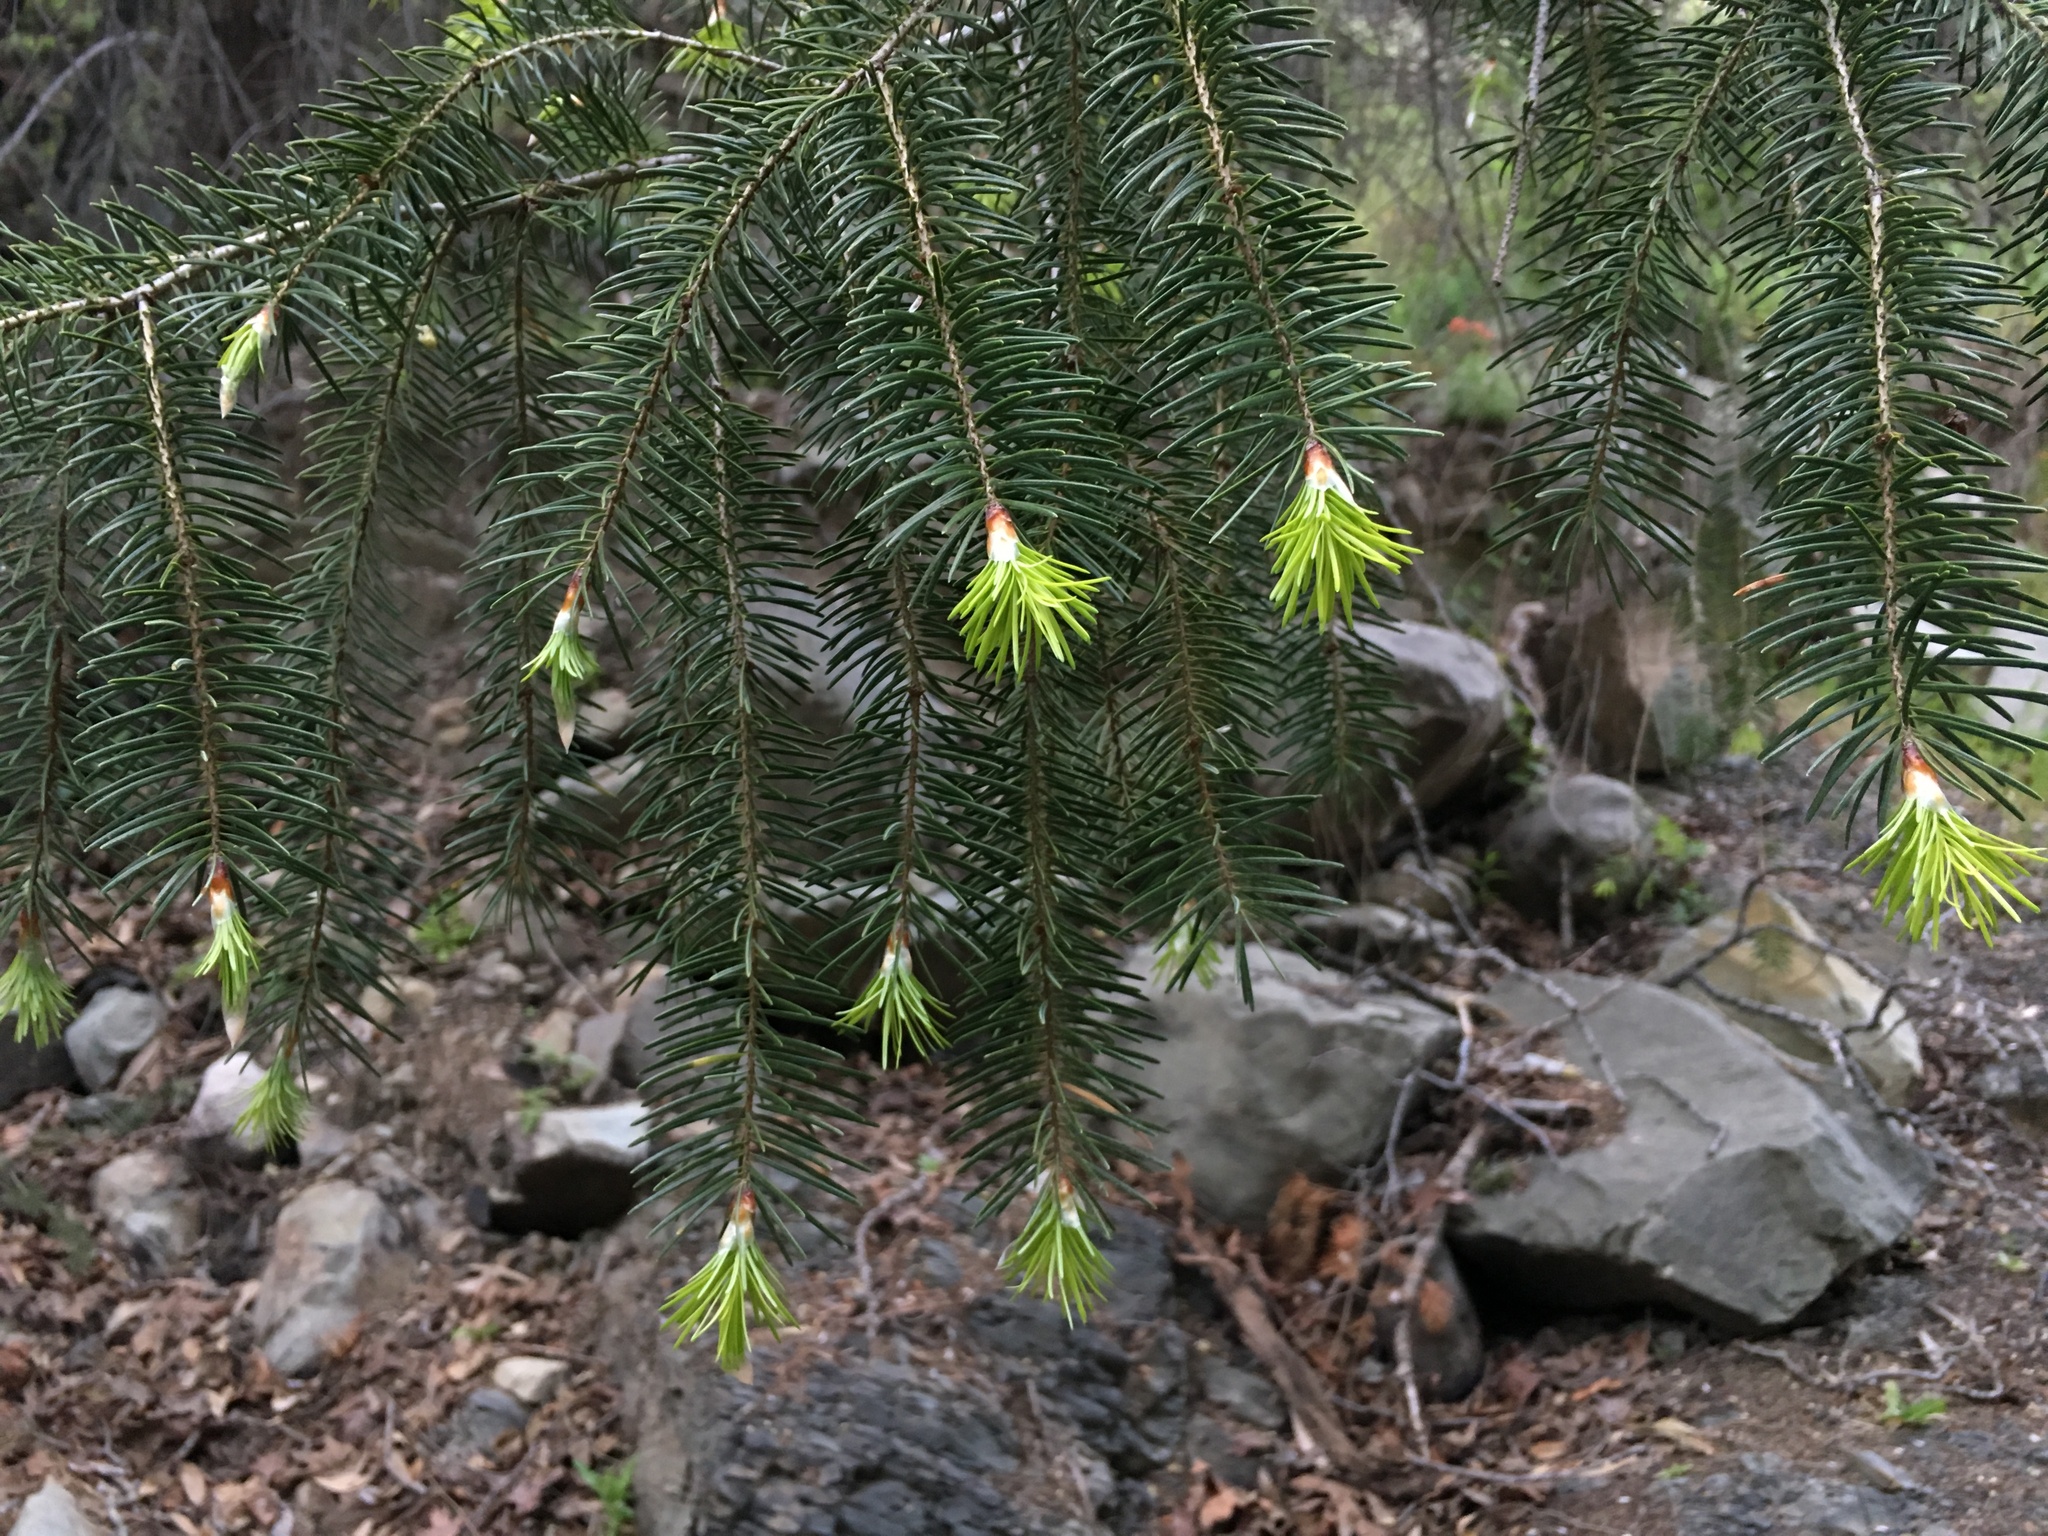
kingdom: Plantae
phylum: Tracheophyta
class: Pinopsida
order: Pinales
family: Pinaceae
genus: Pseudotsuga
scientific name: Pseudotsuga macrocarpa
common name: Big-cone douglas-fir
